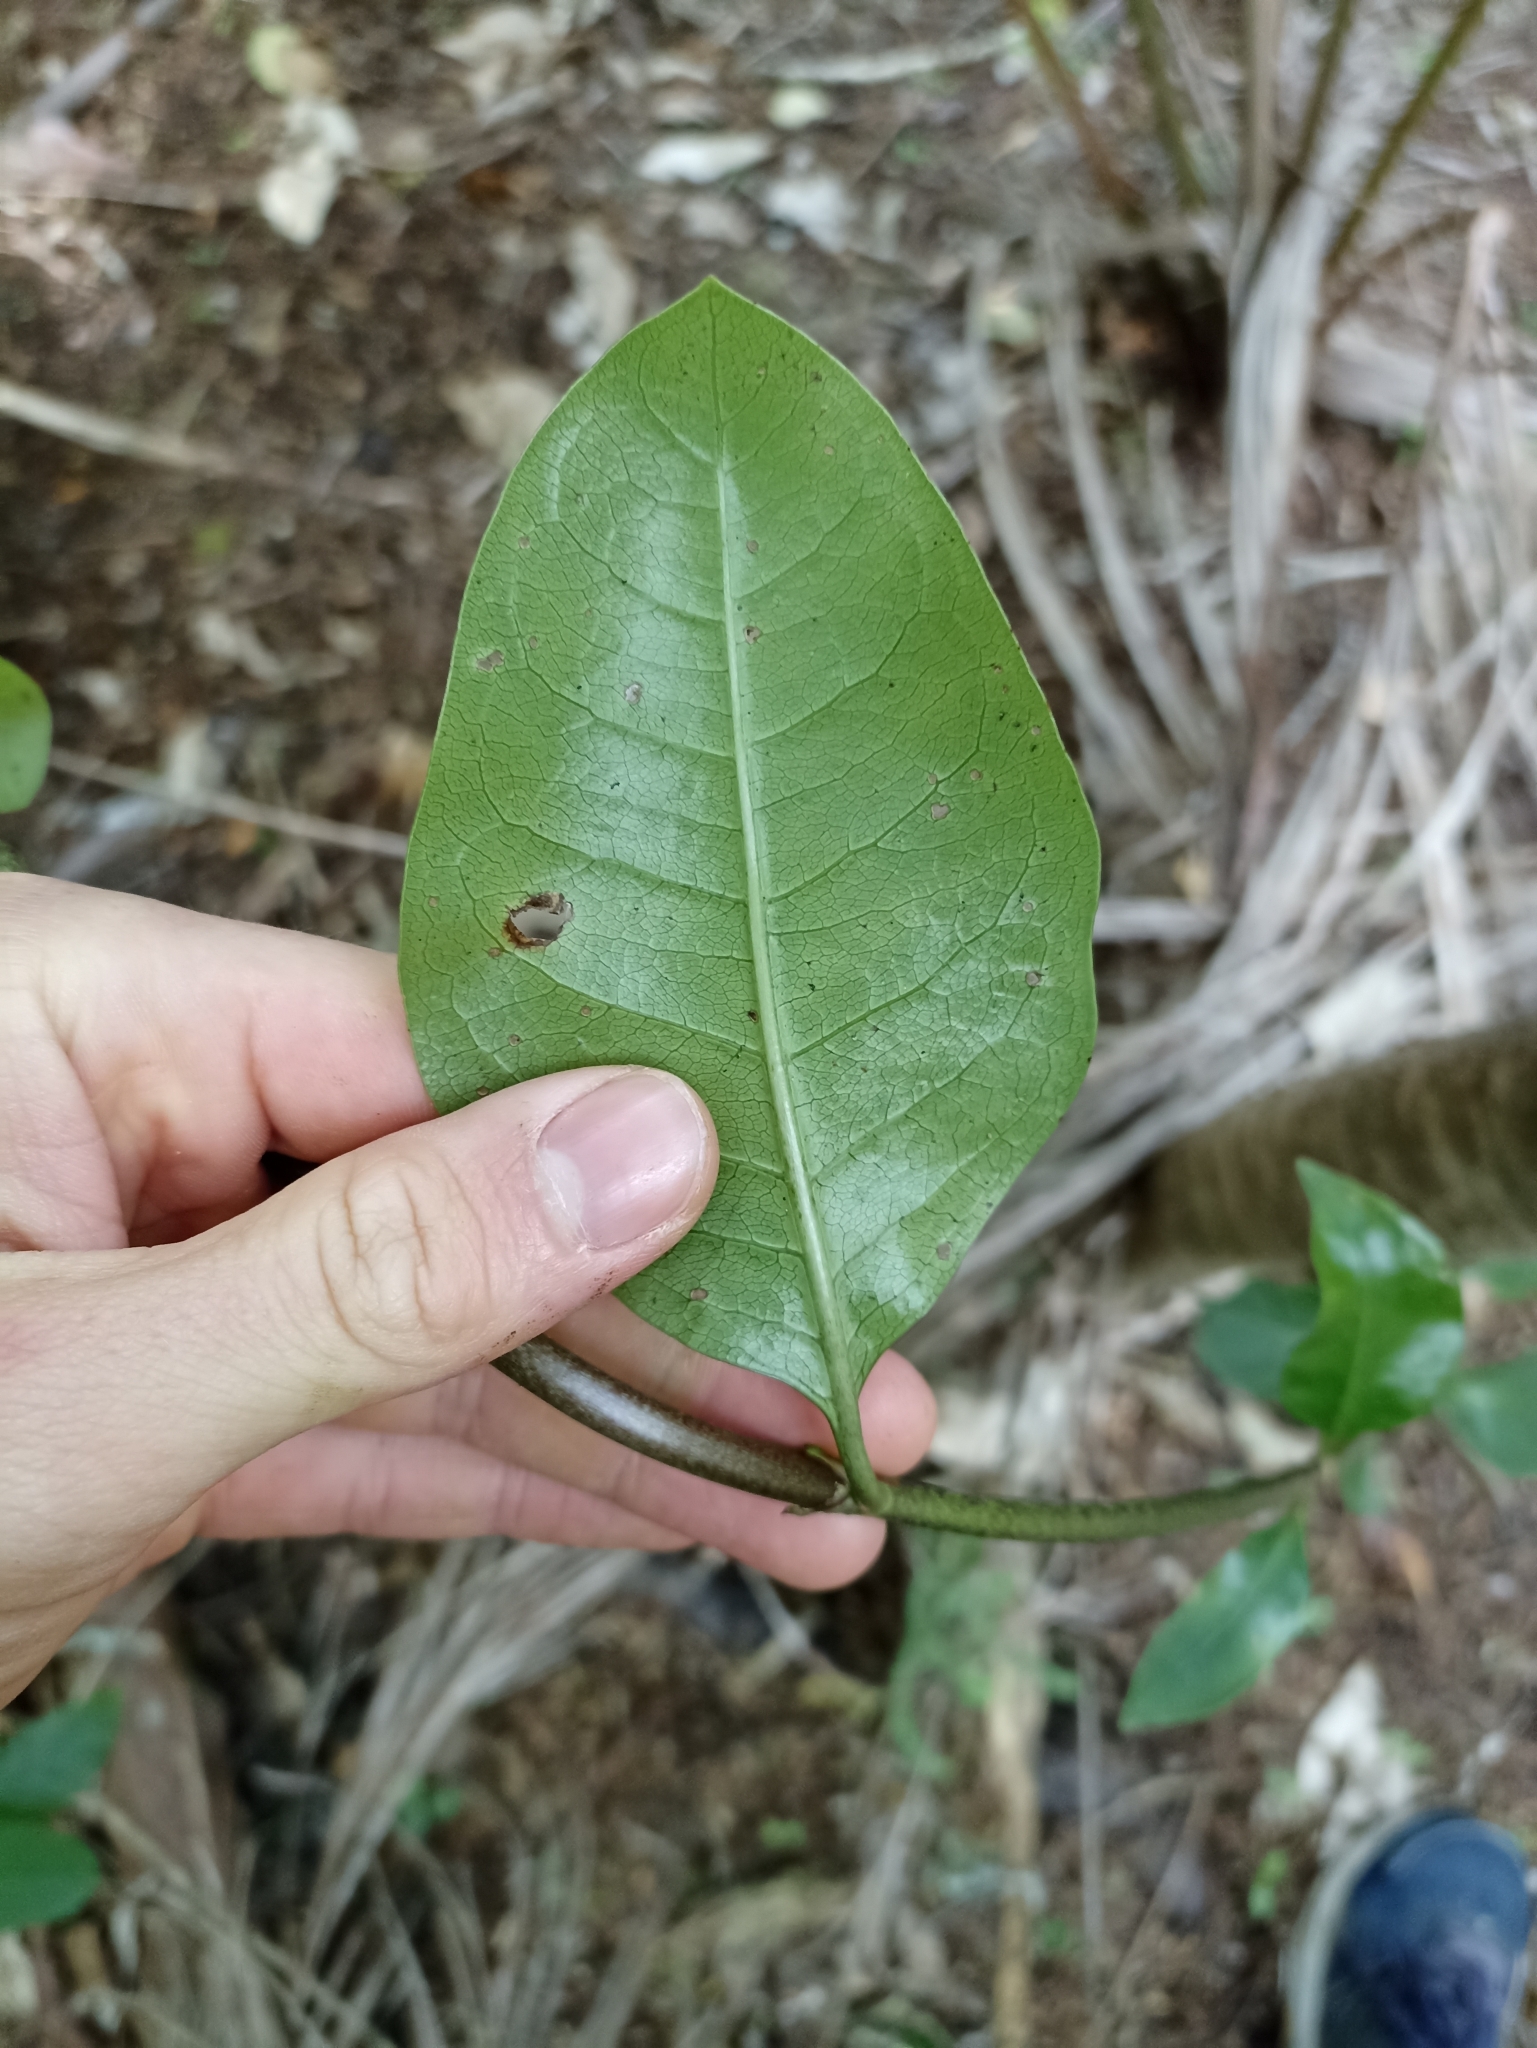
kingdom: Plantae
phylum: Tracheophyta
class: Magnoliopsida
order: Gentianales
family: Rubiaceae
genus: Coprosma
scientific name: Coprosma macrocarpa
